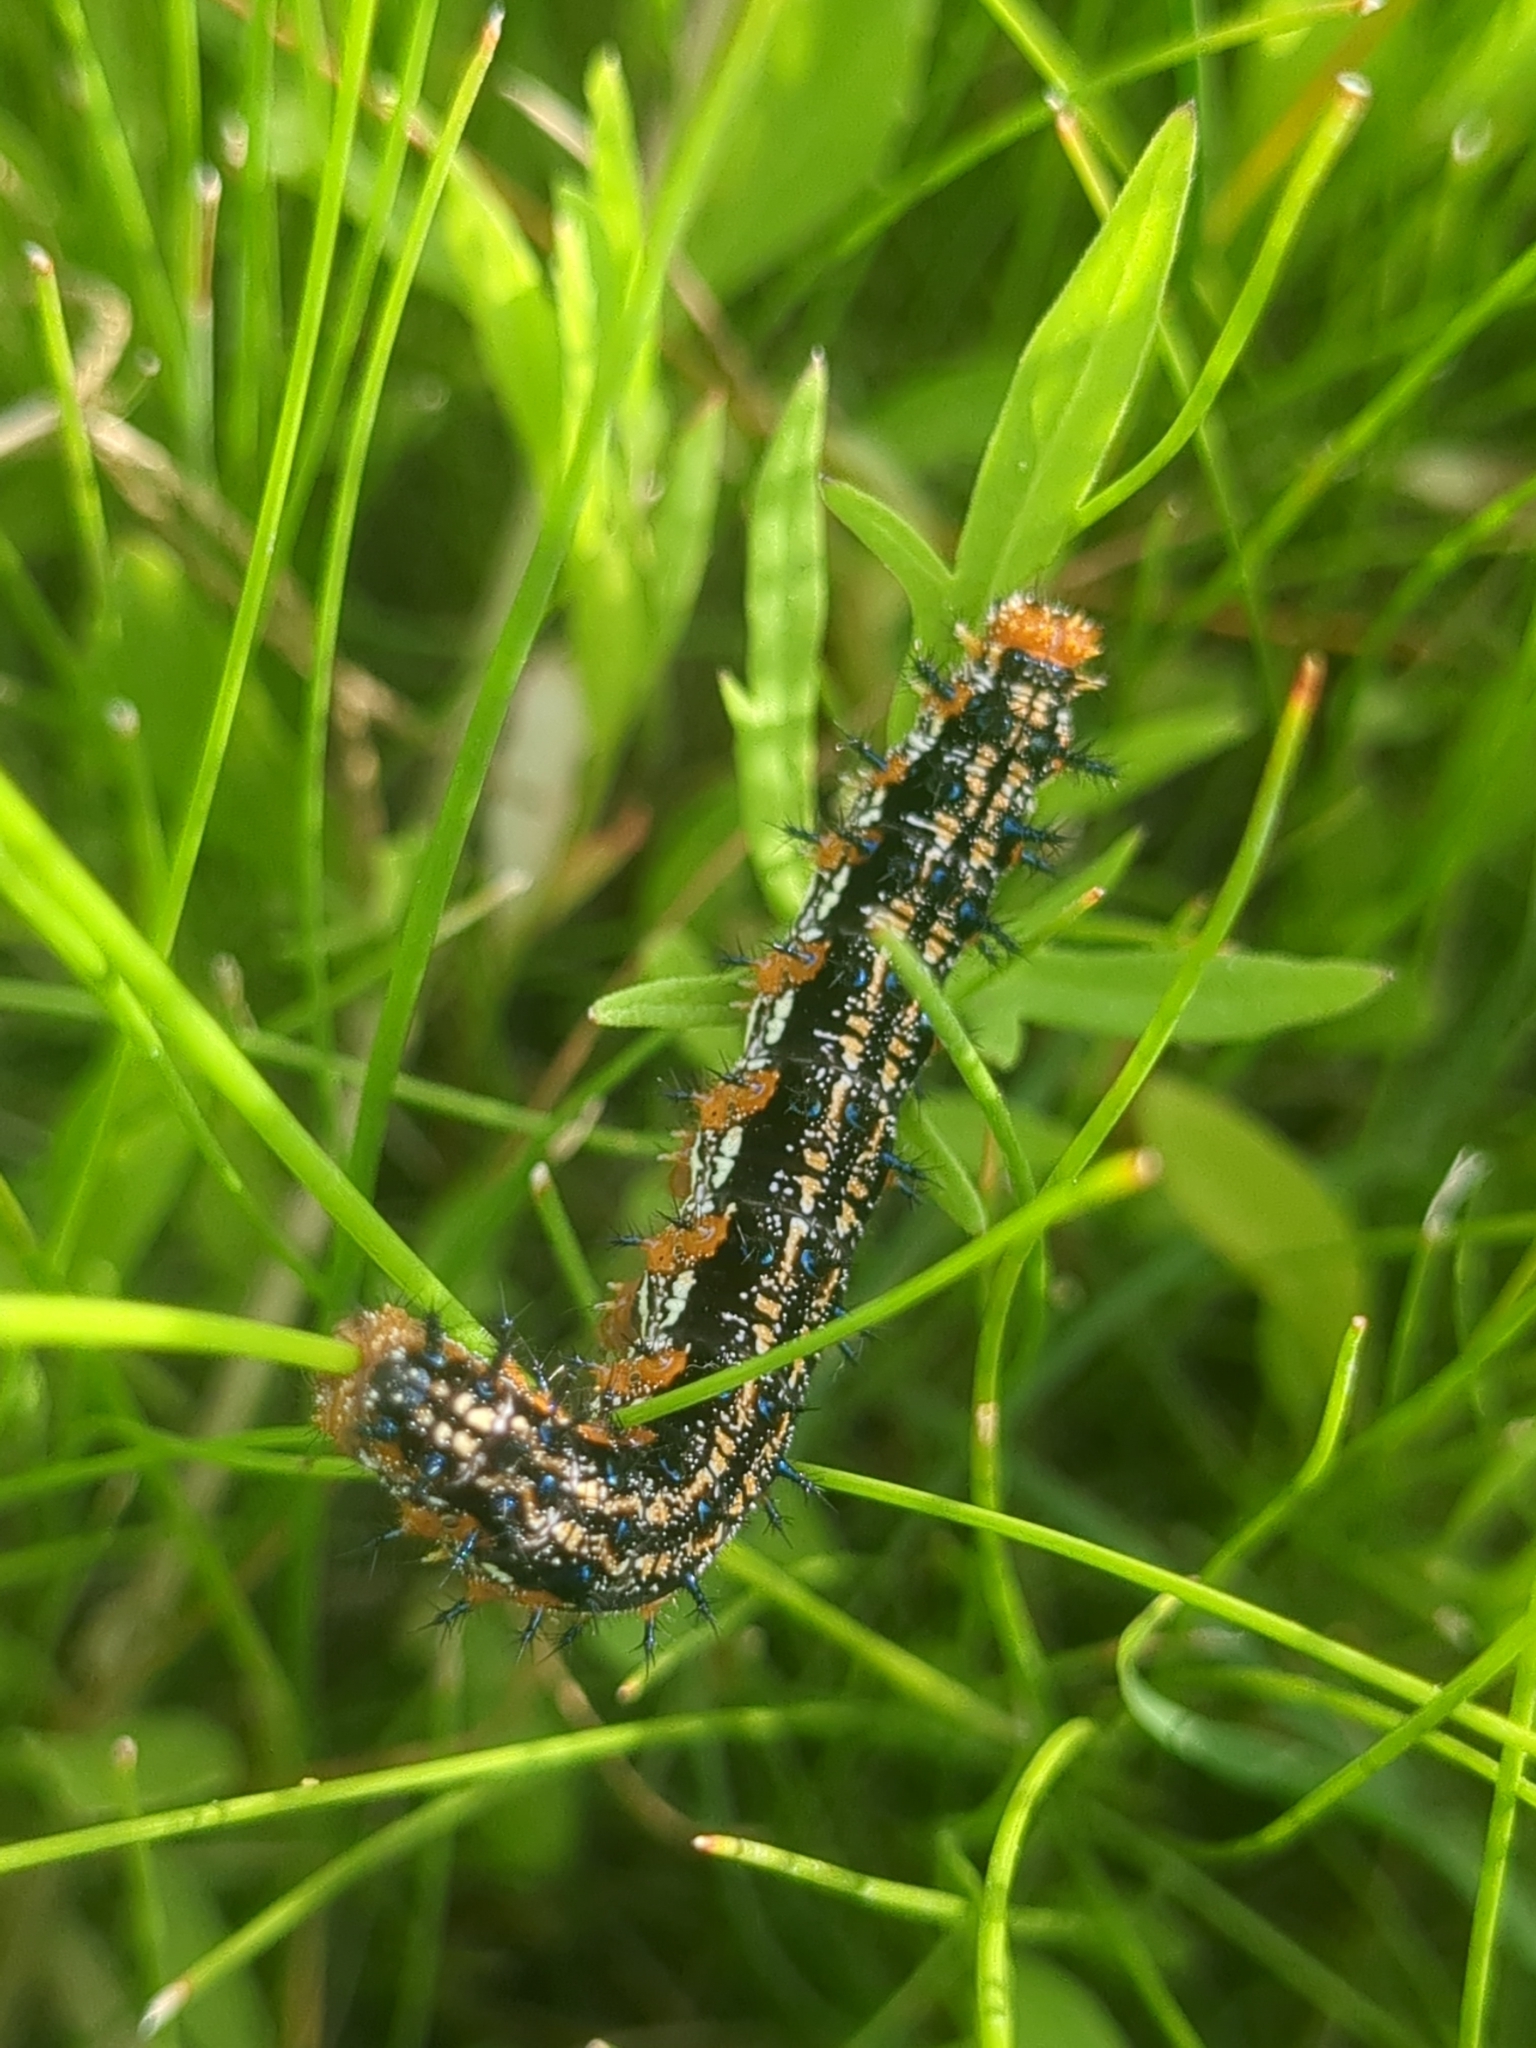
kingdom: Animalia
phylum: Arthropoda
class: Insecta
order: Lepidoptera
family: Nymphalidae
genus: Junonia
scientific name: Junonia coenia
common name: Common buckeye
